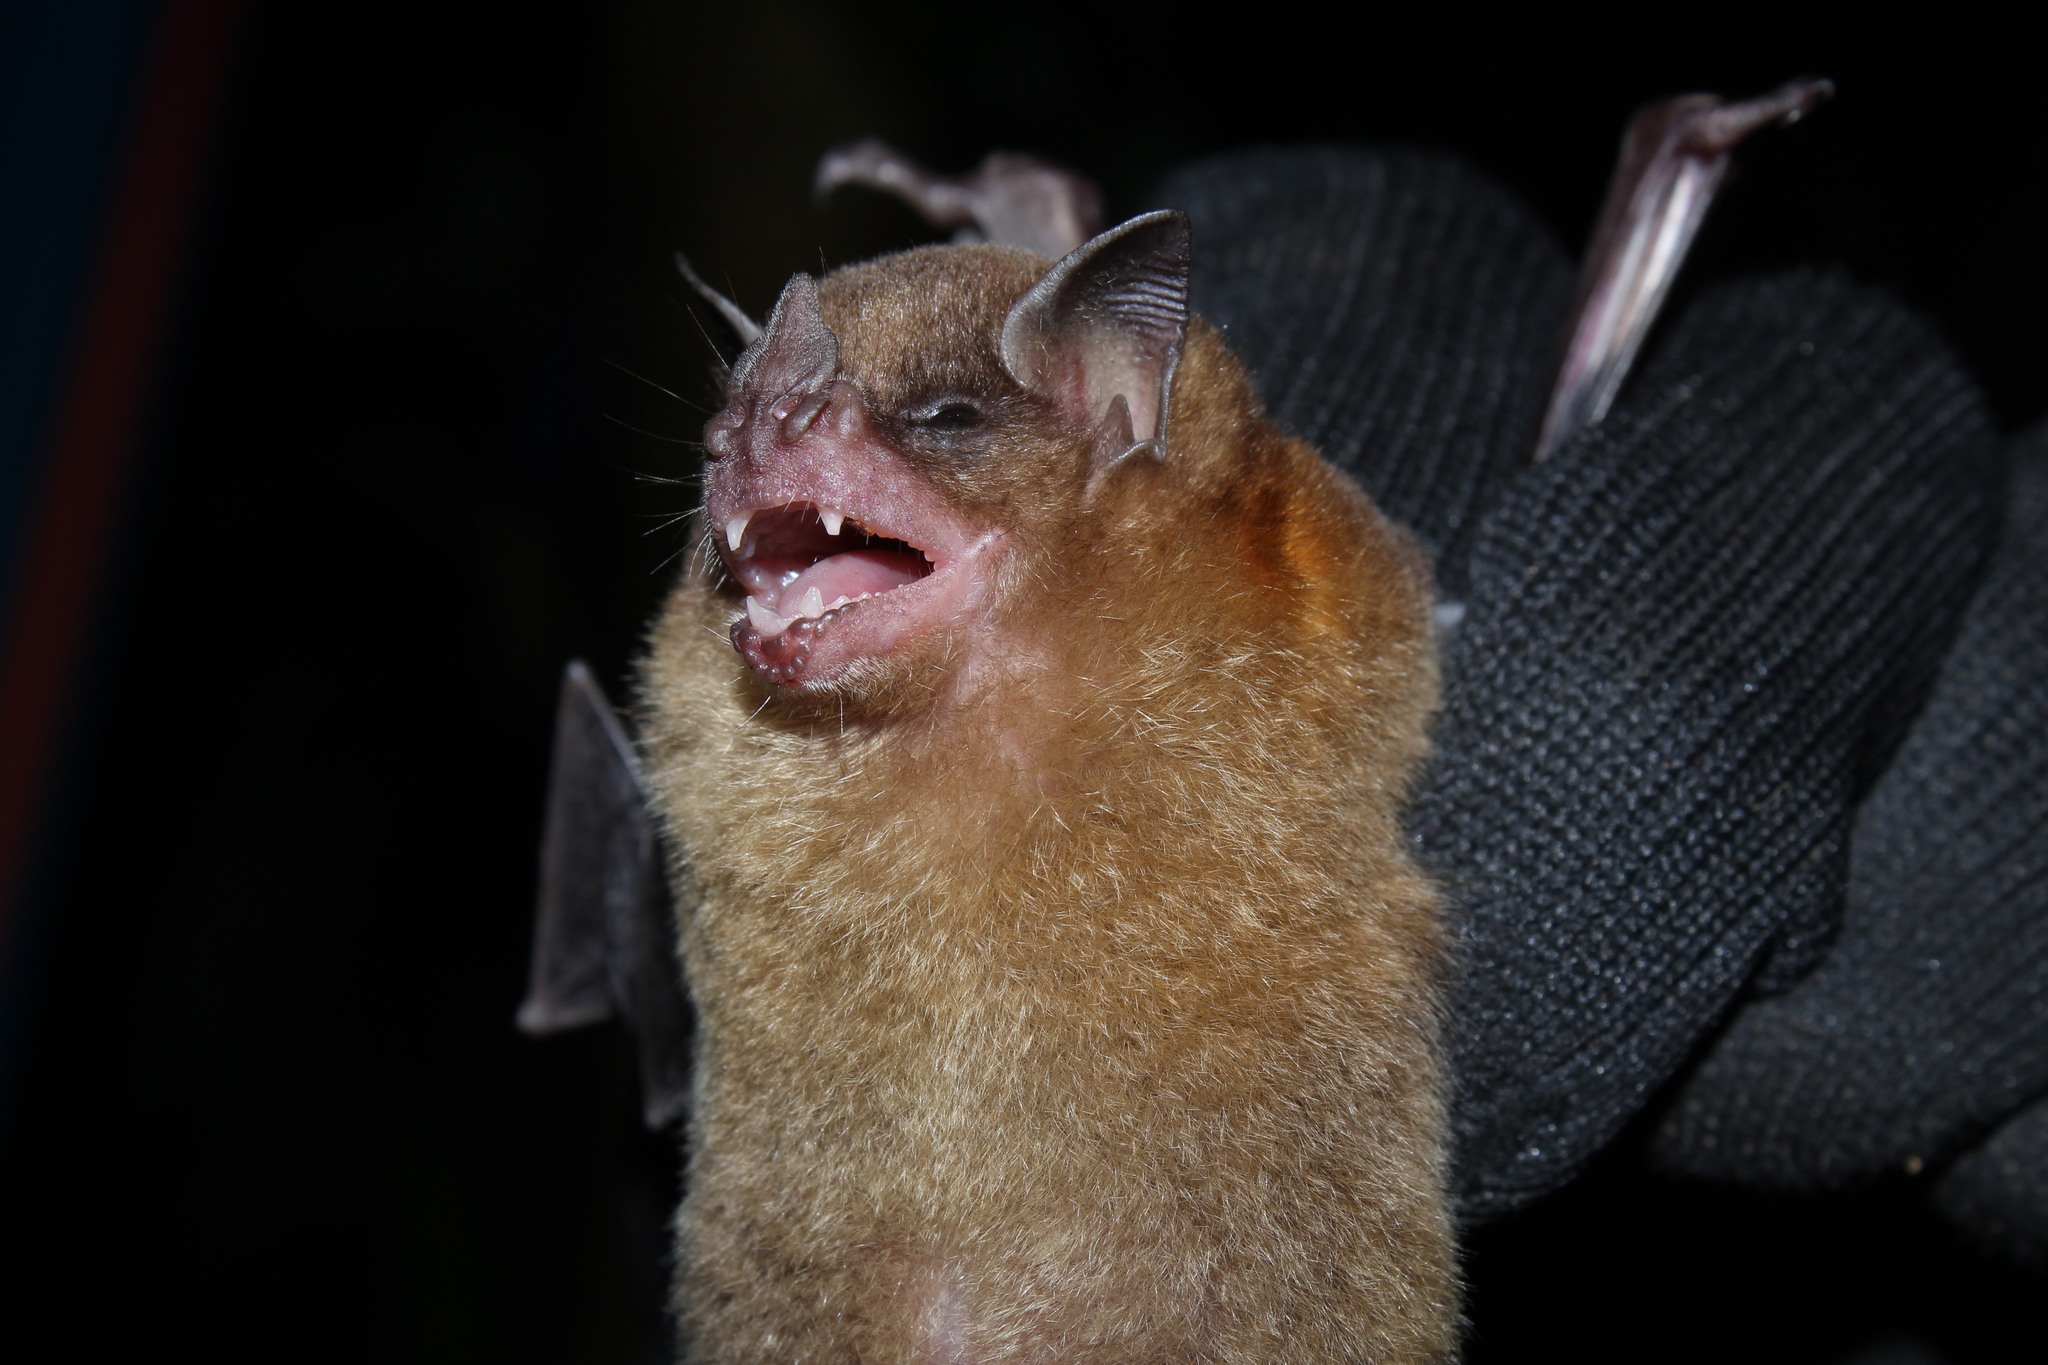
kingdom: Animalia
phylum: Chordata
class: Mammalia
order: Chiroptera
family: Phyllostomidae
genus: Sturnira
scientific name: Sturnira lilium
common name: Little yellow-shouldered bat
